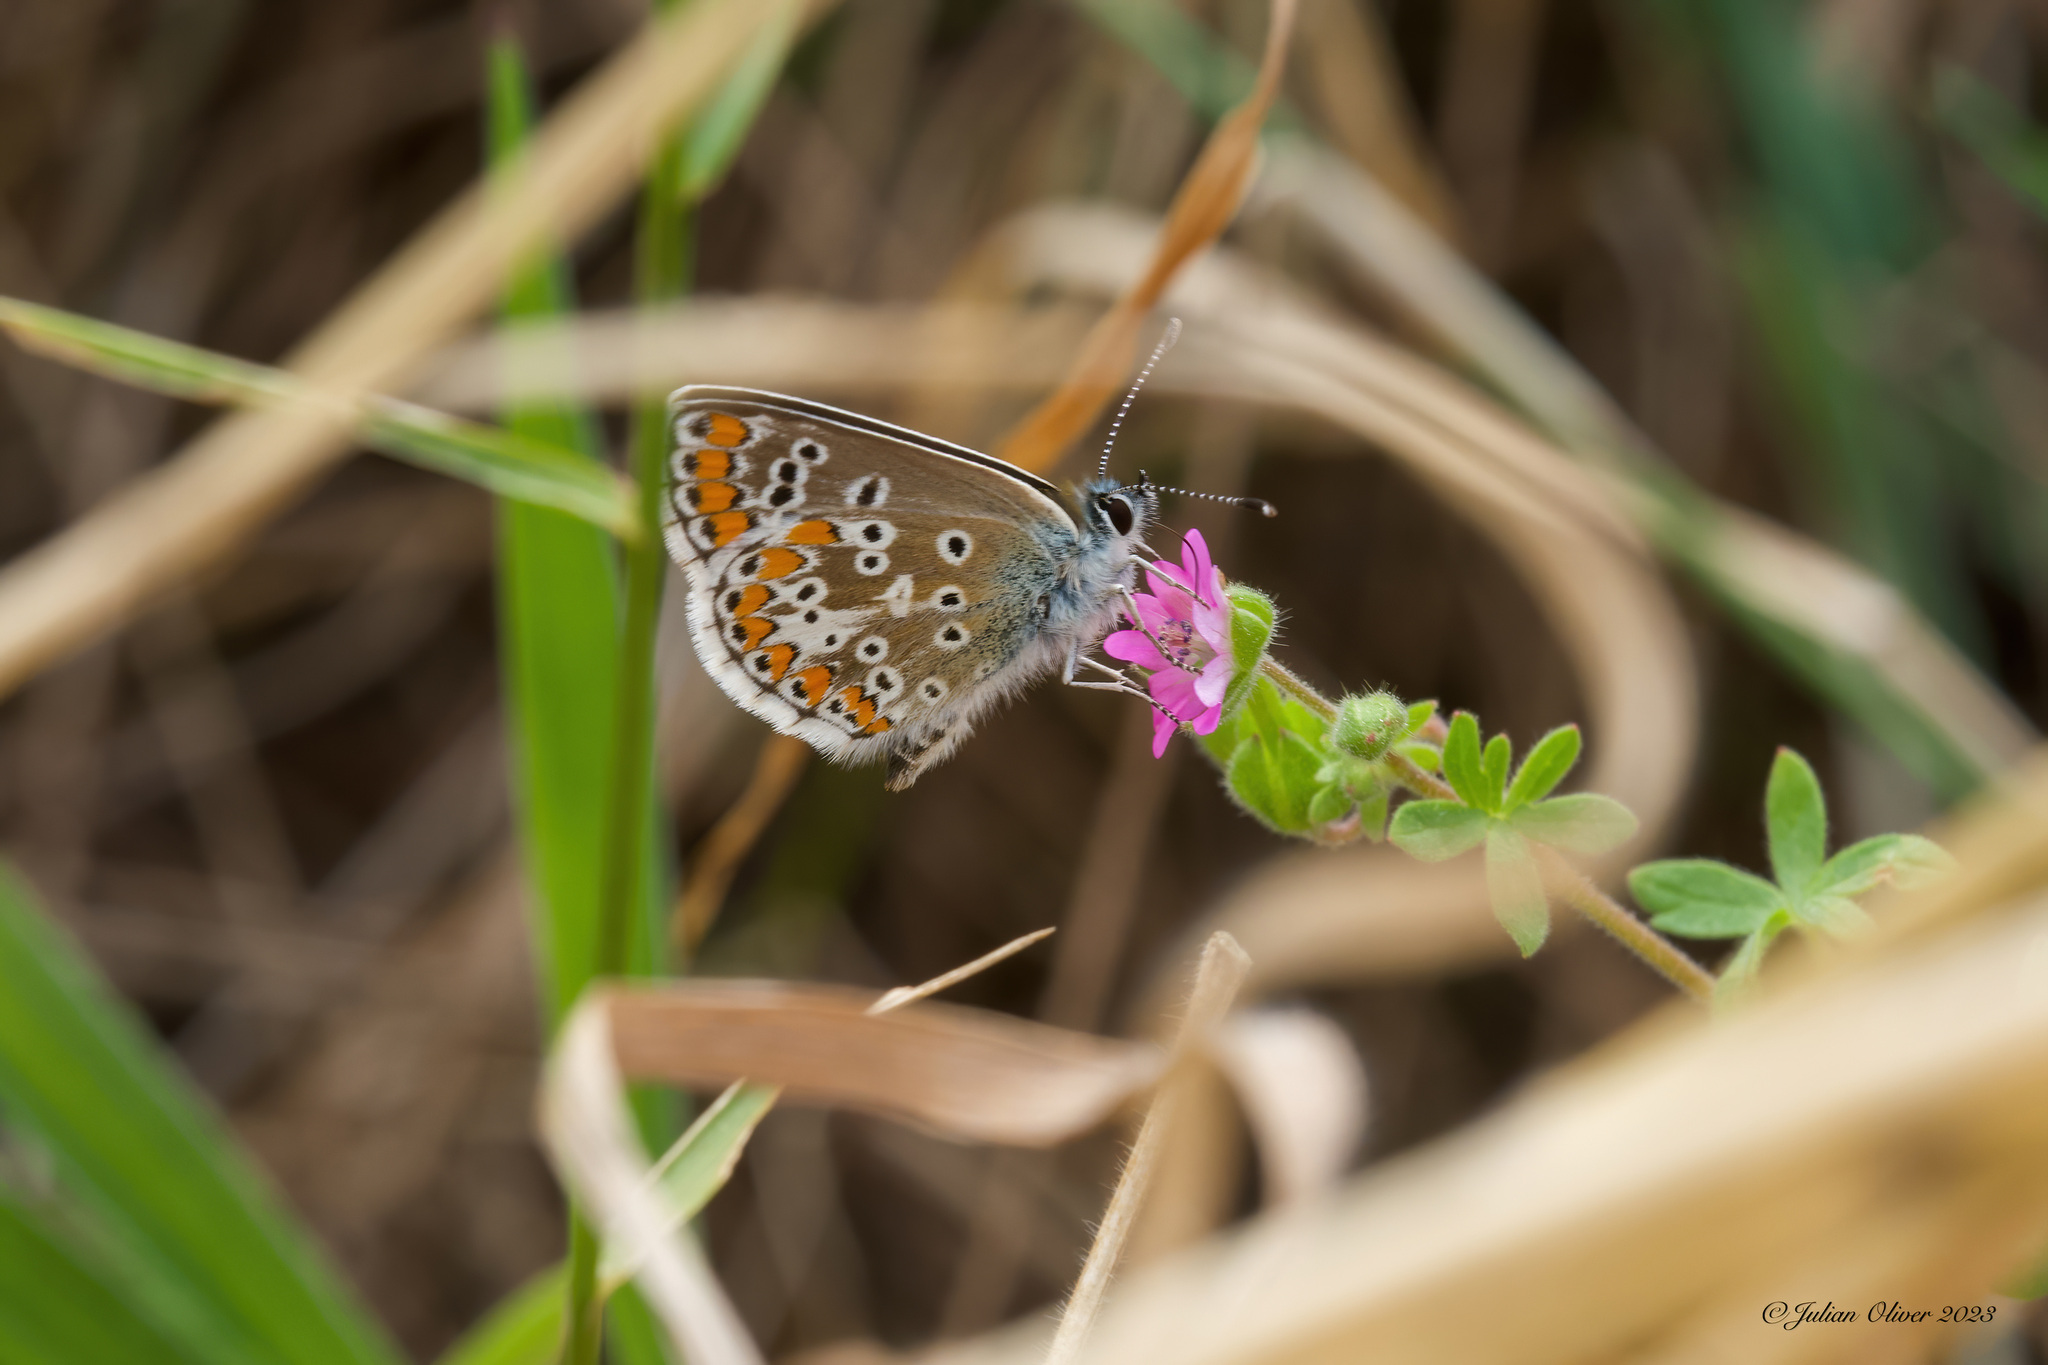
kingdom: Animalia
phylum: Arthropoda
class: Insecta
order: Lepidoptera
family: Lycaenidae
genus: Aricia
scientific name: Aricia agestis
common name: Brown argus
